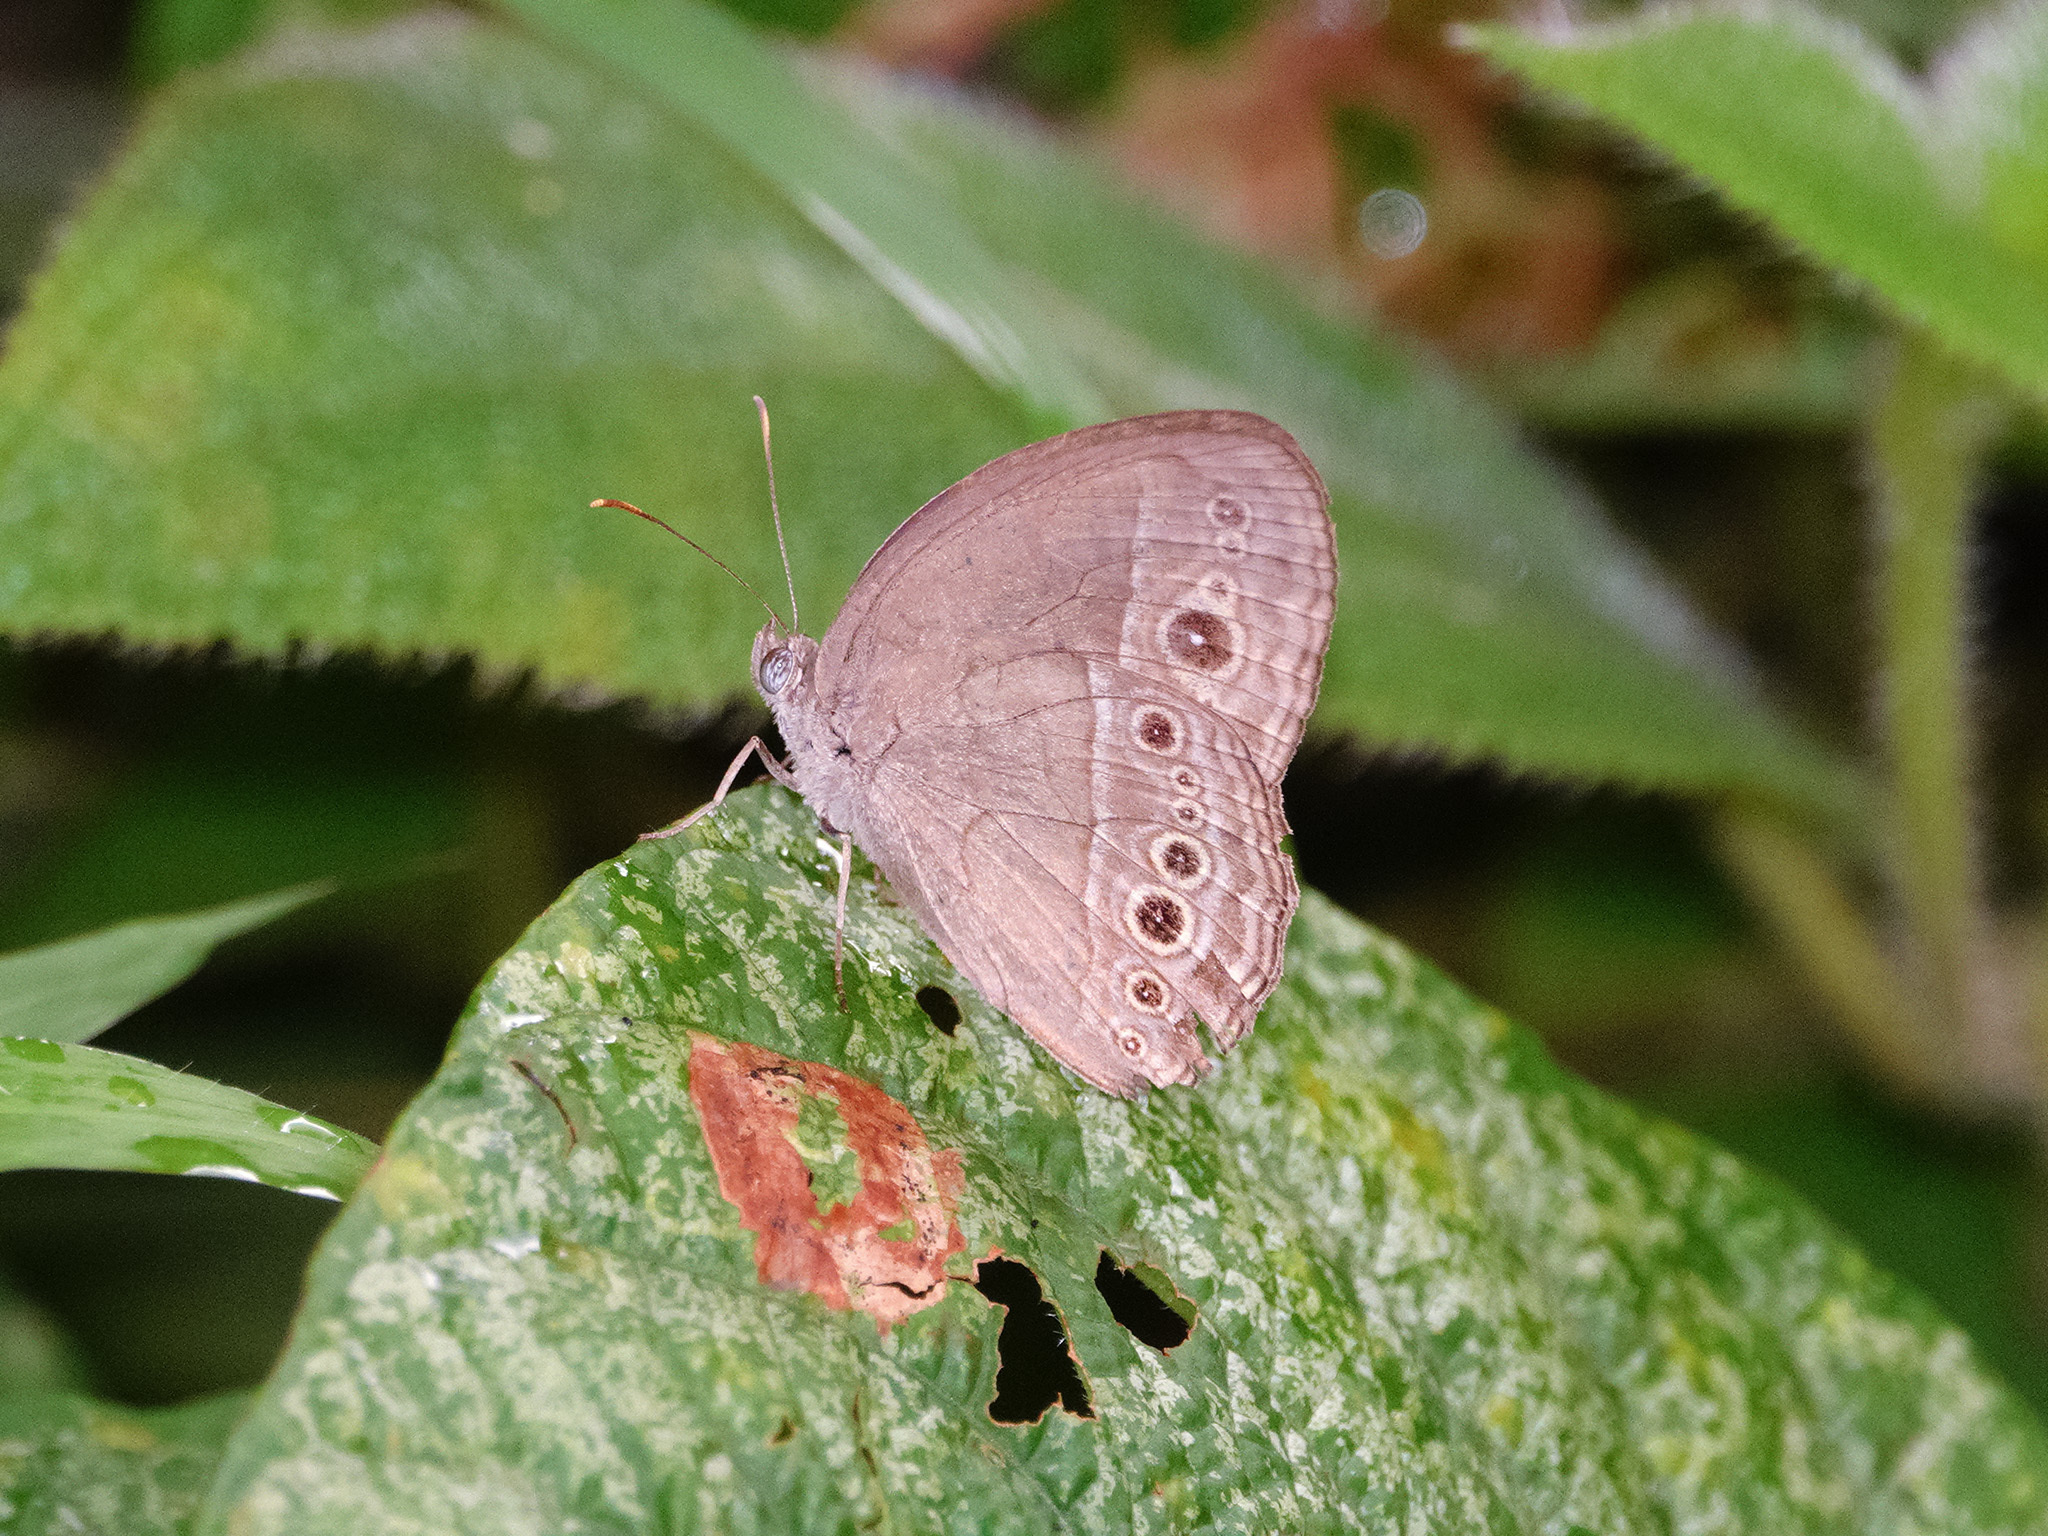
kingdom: Animalia
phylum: Arthropoda
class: Insecta
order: Lepidoptera
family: Nymphalidae
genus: Mycalesis
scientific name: Mycalesis perseoides
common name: Burmese bushbrown
